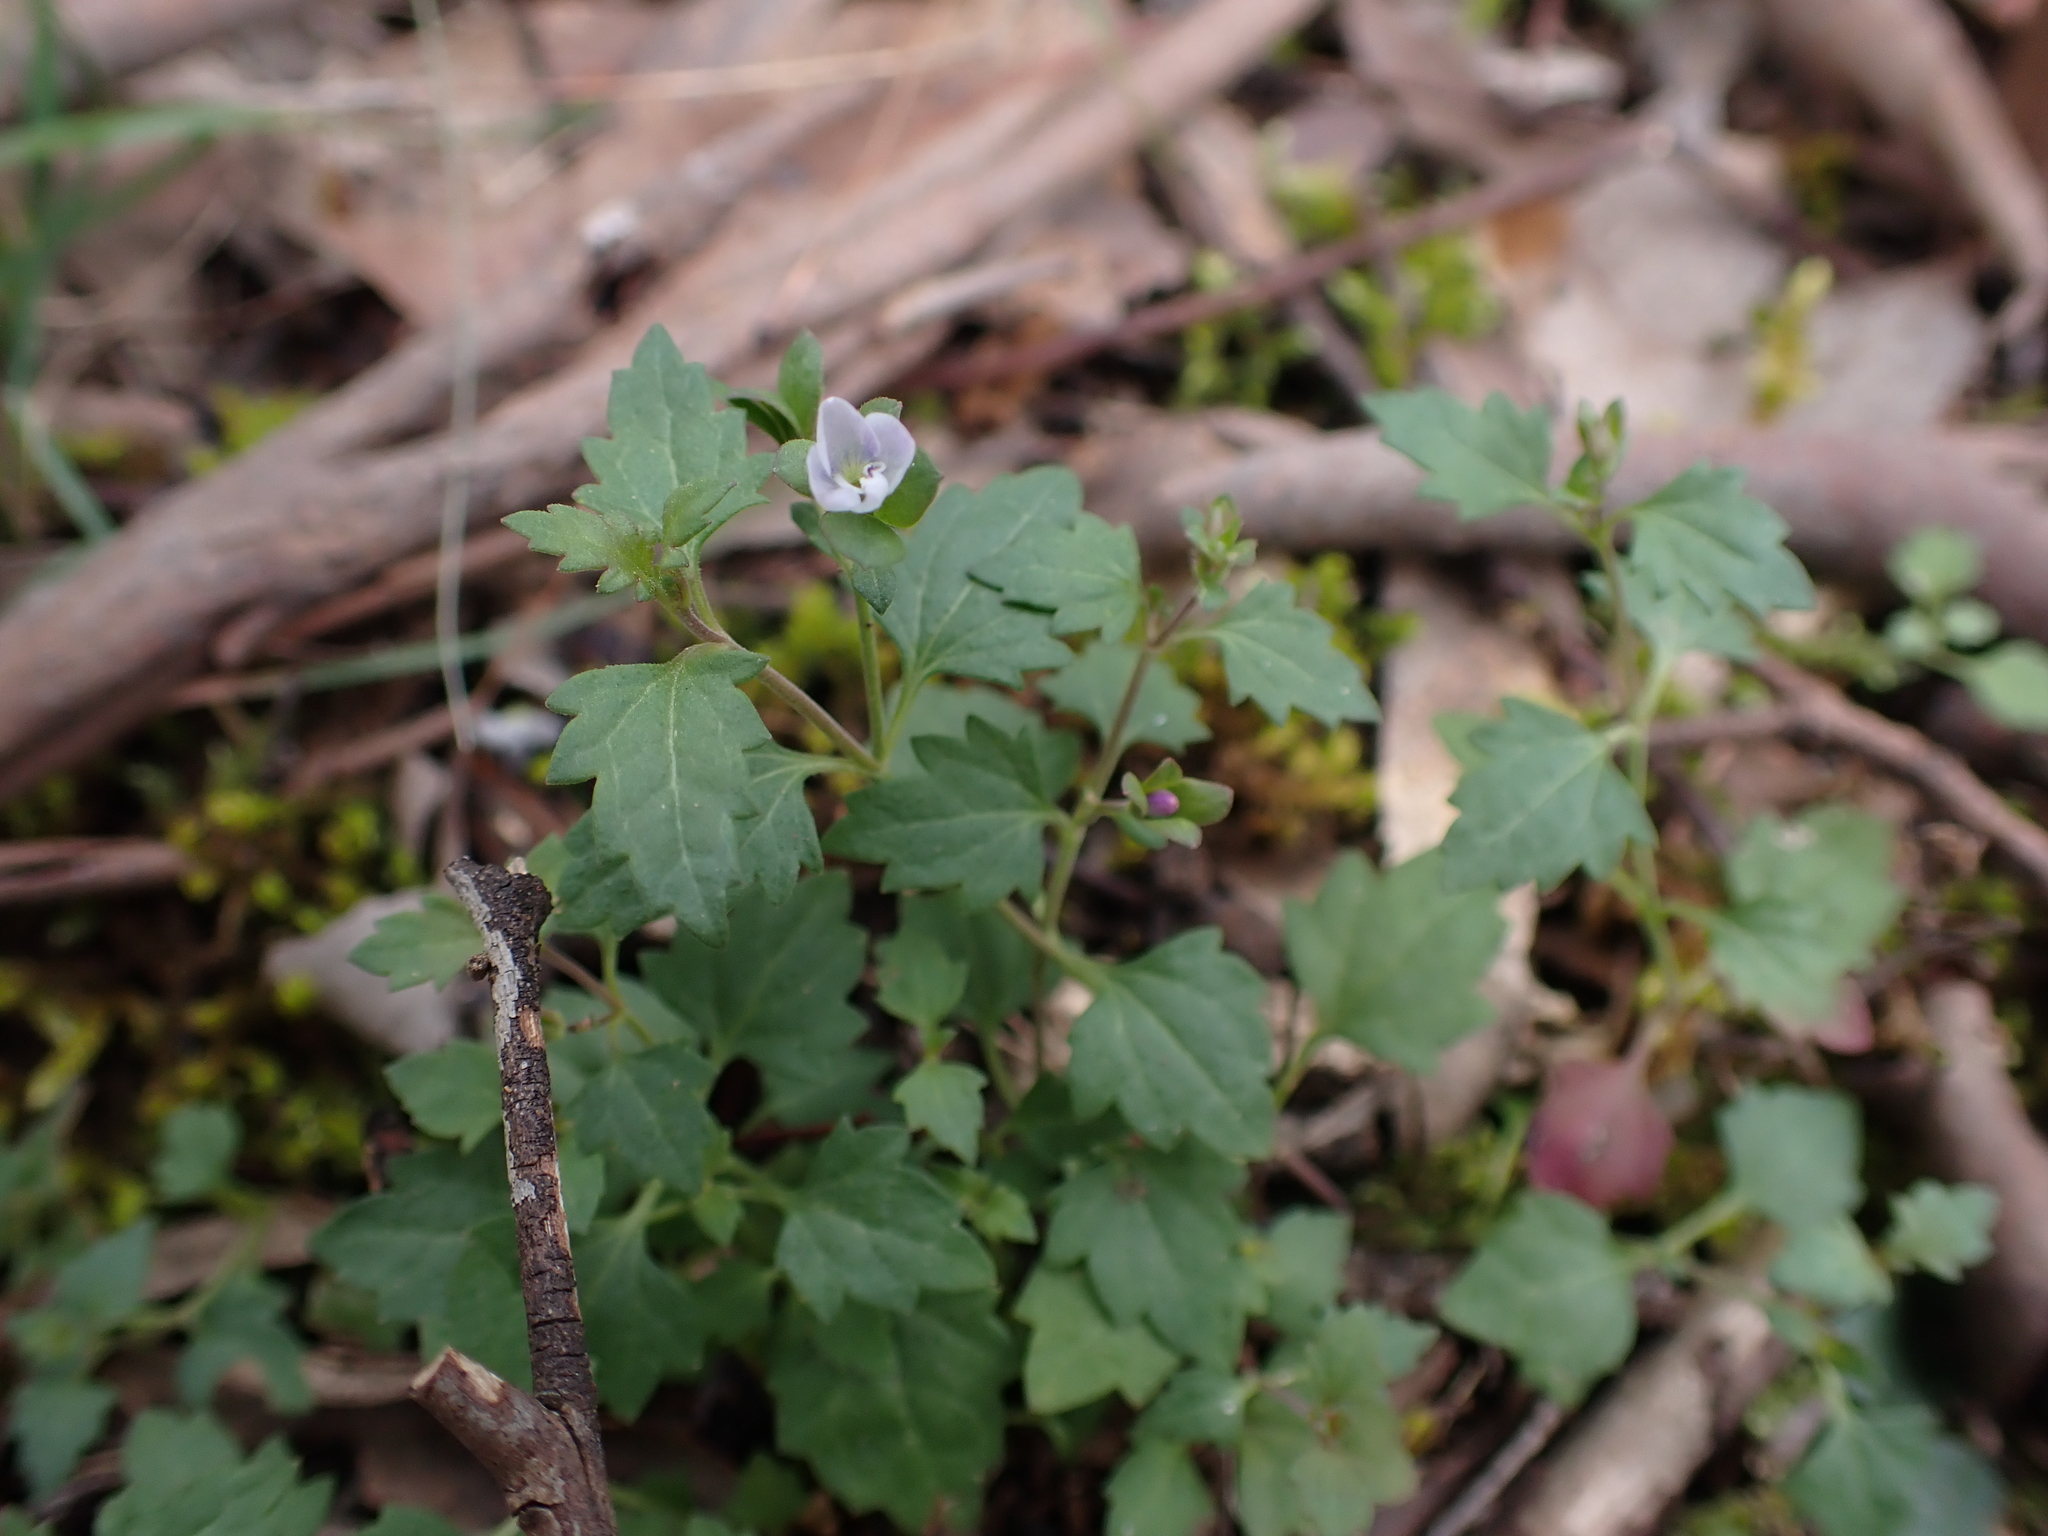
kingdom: Plantae
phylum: Tracheophyta
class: Magnoliopsida
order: Lamiales
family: Plantaginaceae
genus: Veronica
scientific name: Veronica plebeia
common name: Speedwell
